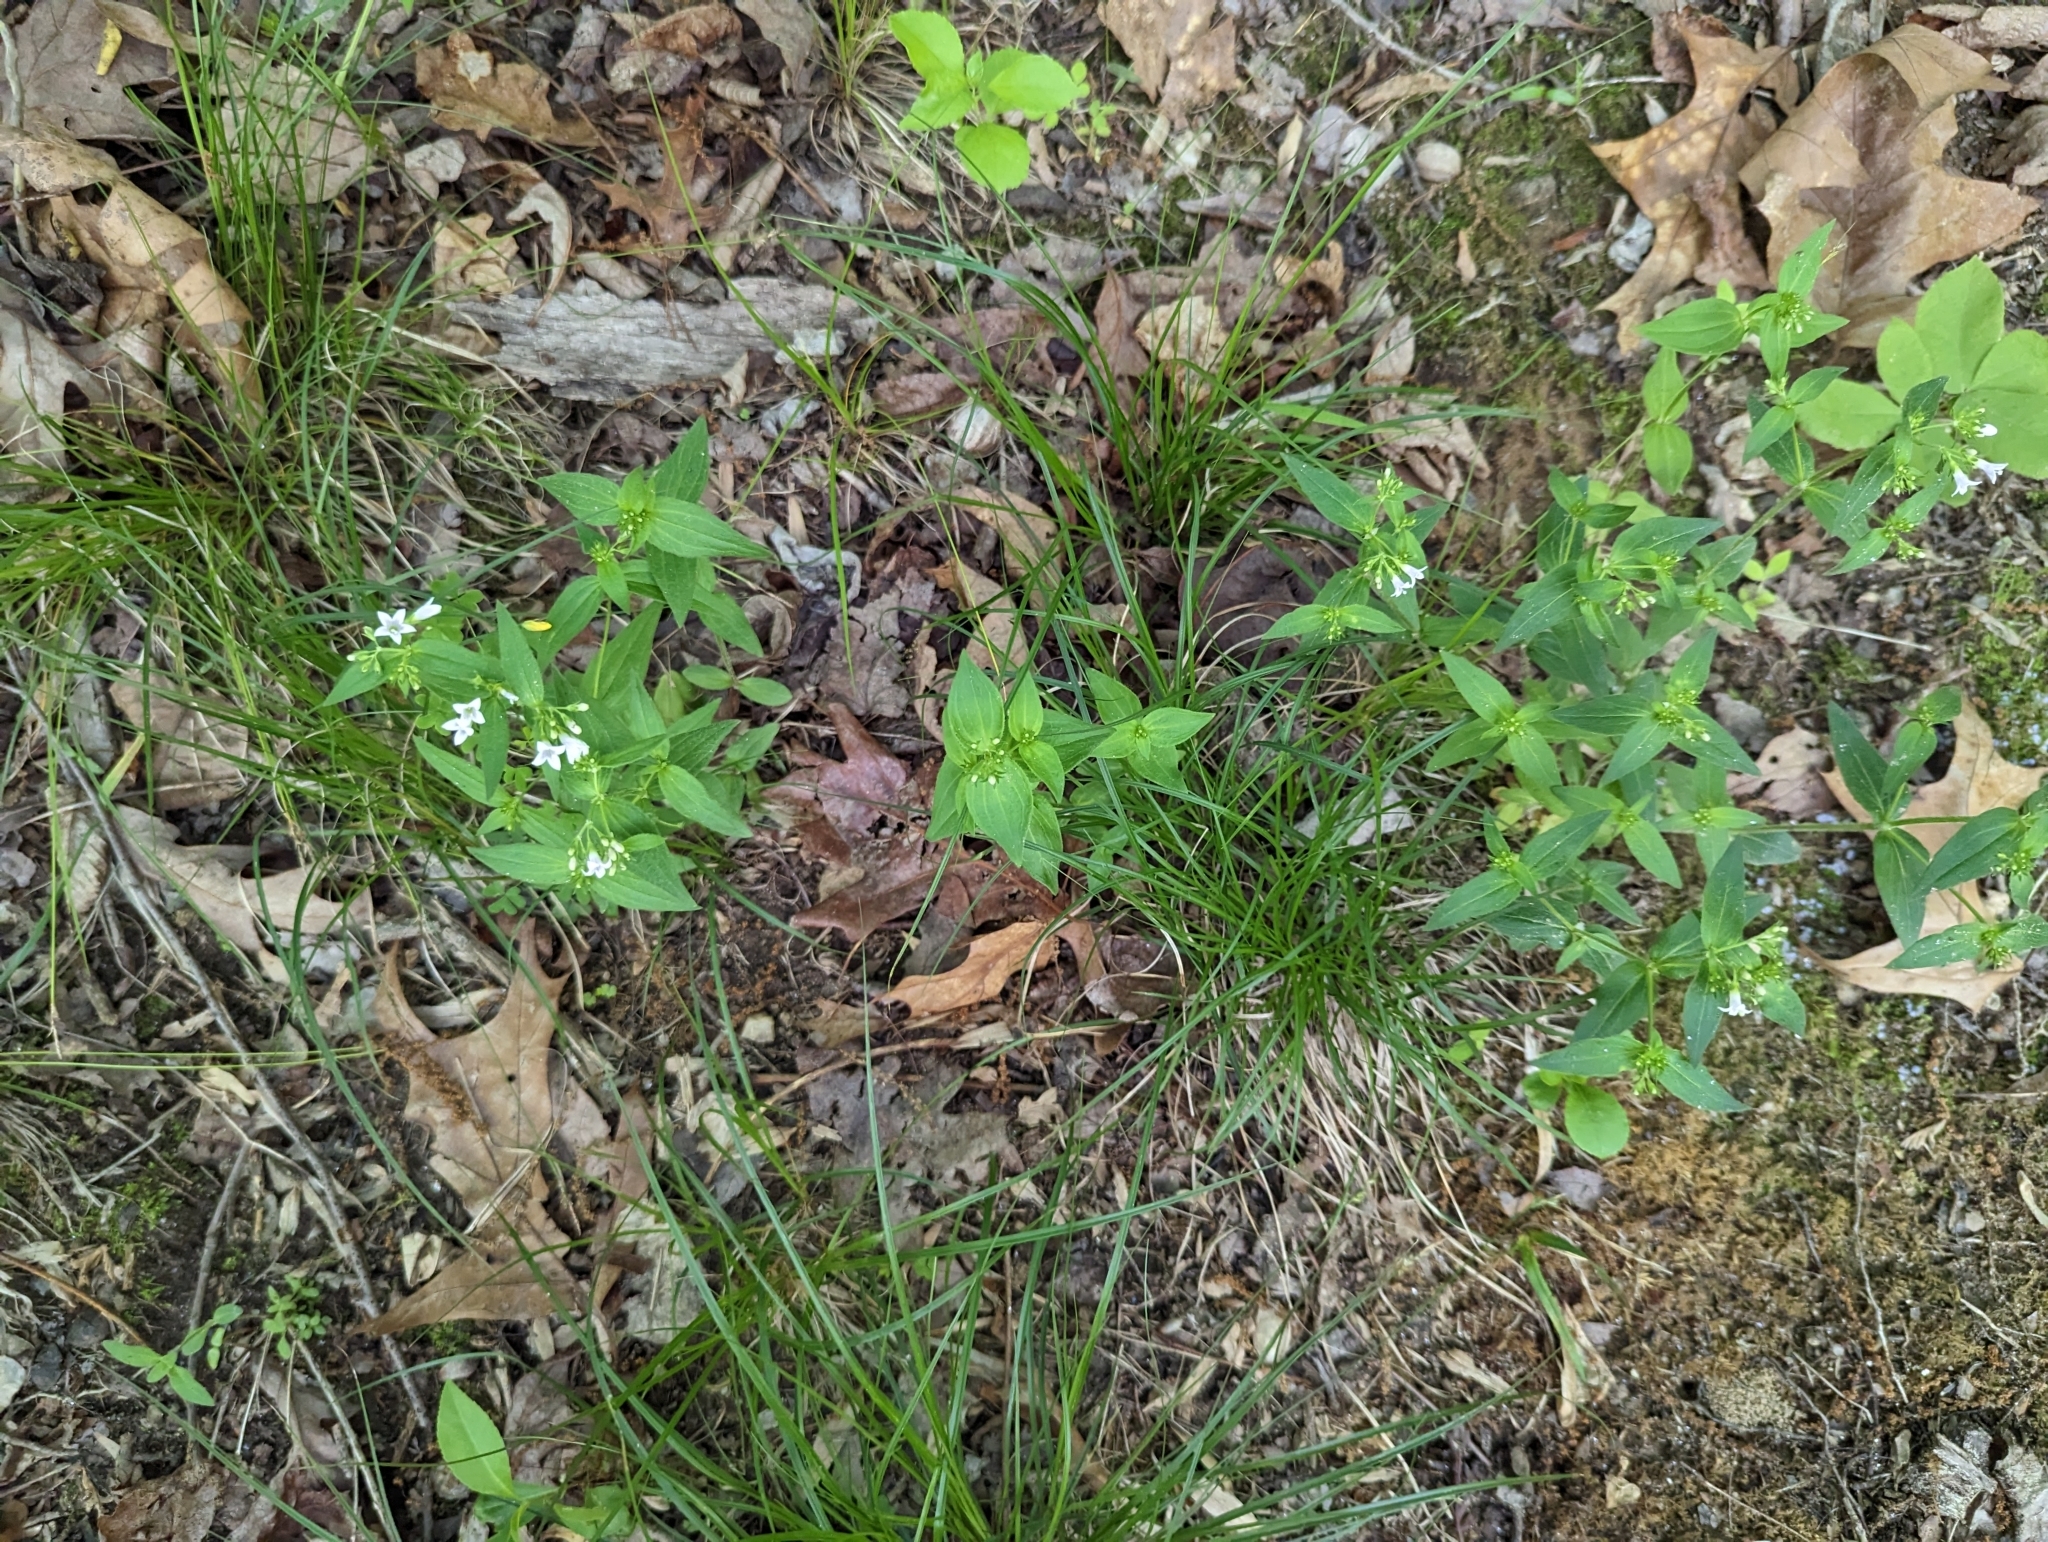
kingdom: Plantae
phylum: Tracheophyta
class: Magnoliopsida
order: Gentianales
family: Rubiaceae
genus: Houstonia
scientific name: Houstonia purpurea
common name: Summer bluet
